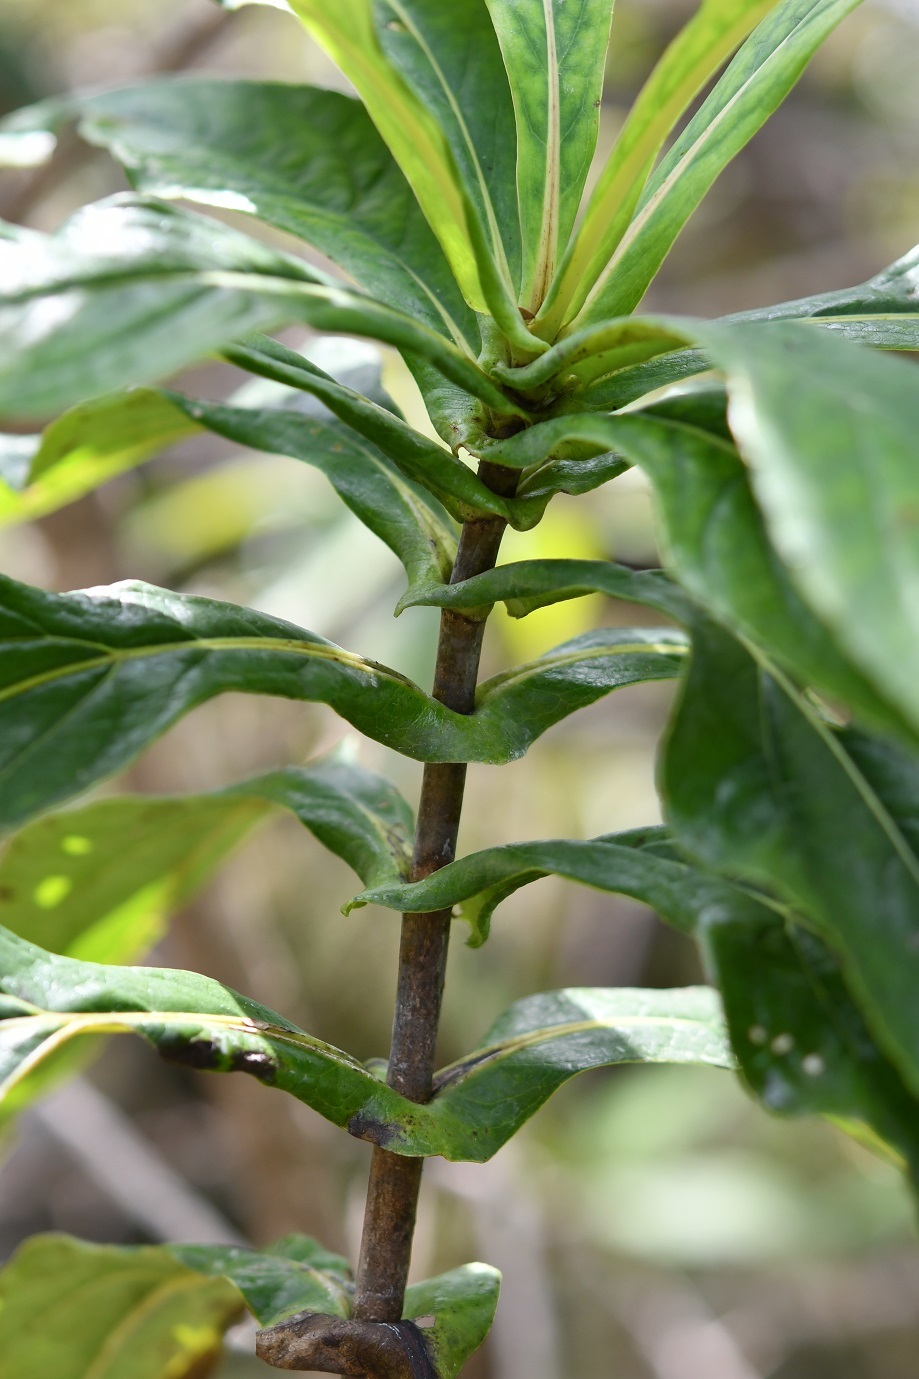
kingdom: Plantae
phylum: Tracheophyta
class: Magnoliopsida
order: Asterales
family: Asteraceae
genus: Desmanthodium
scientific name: Desmanthodium perfoliatum
